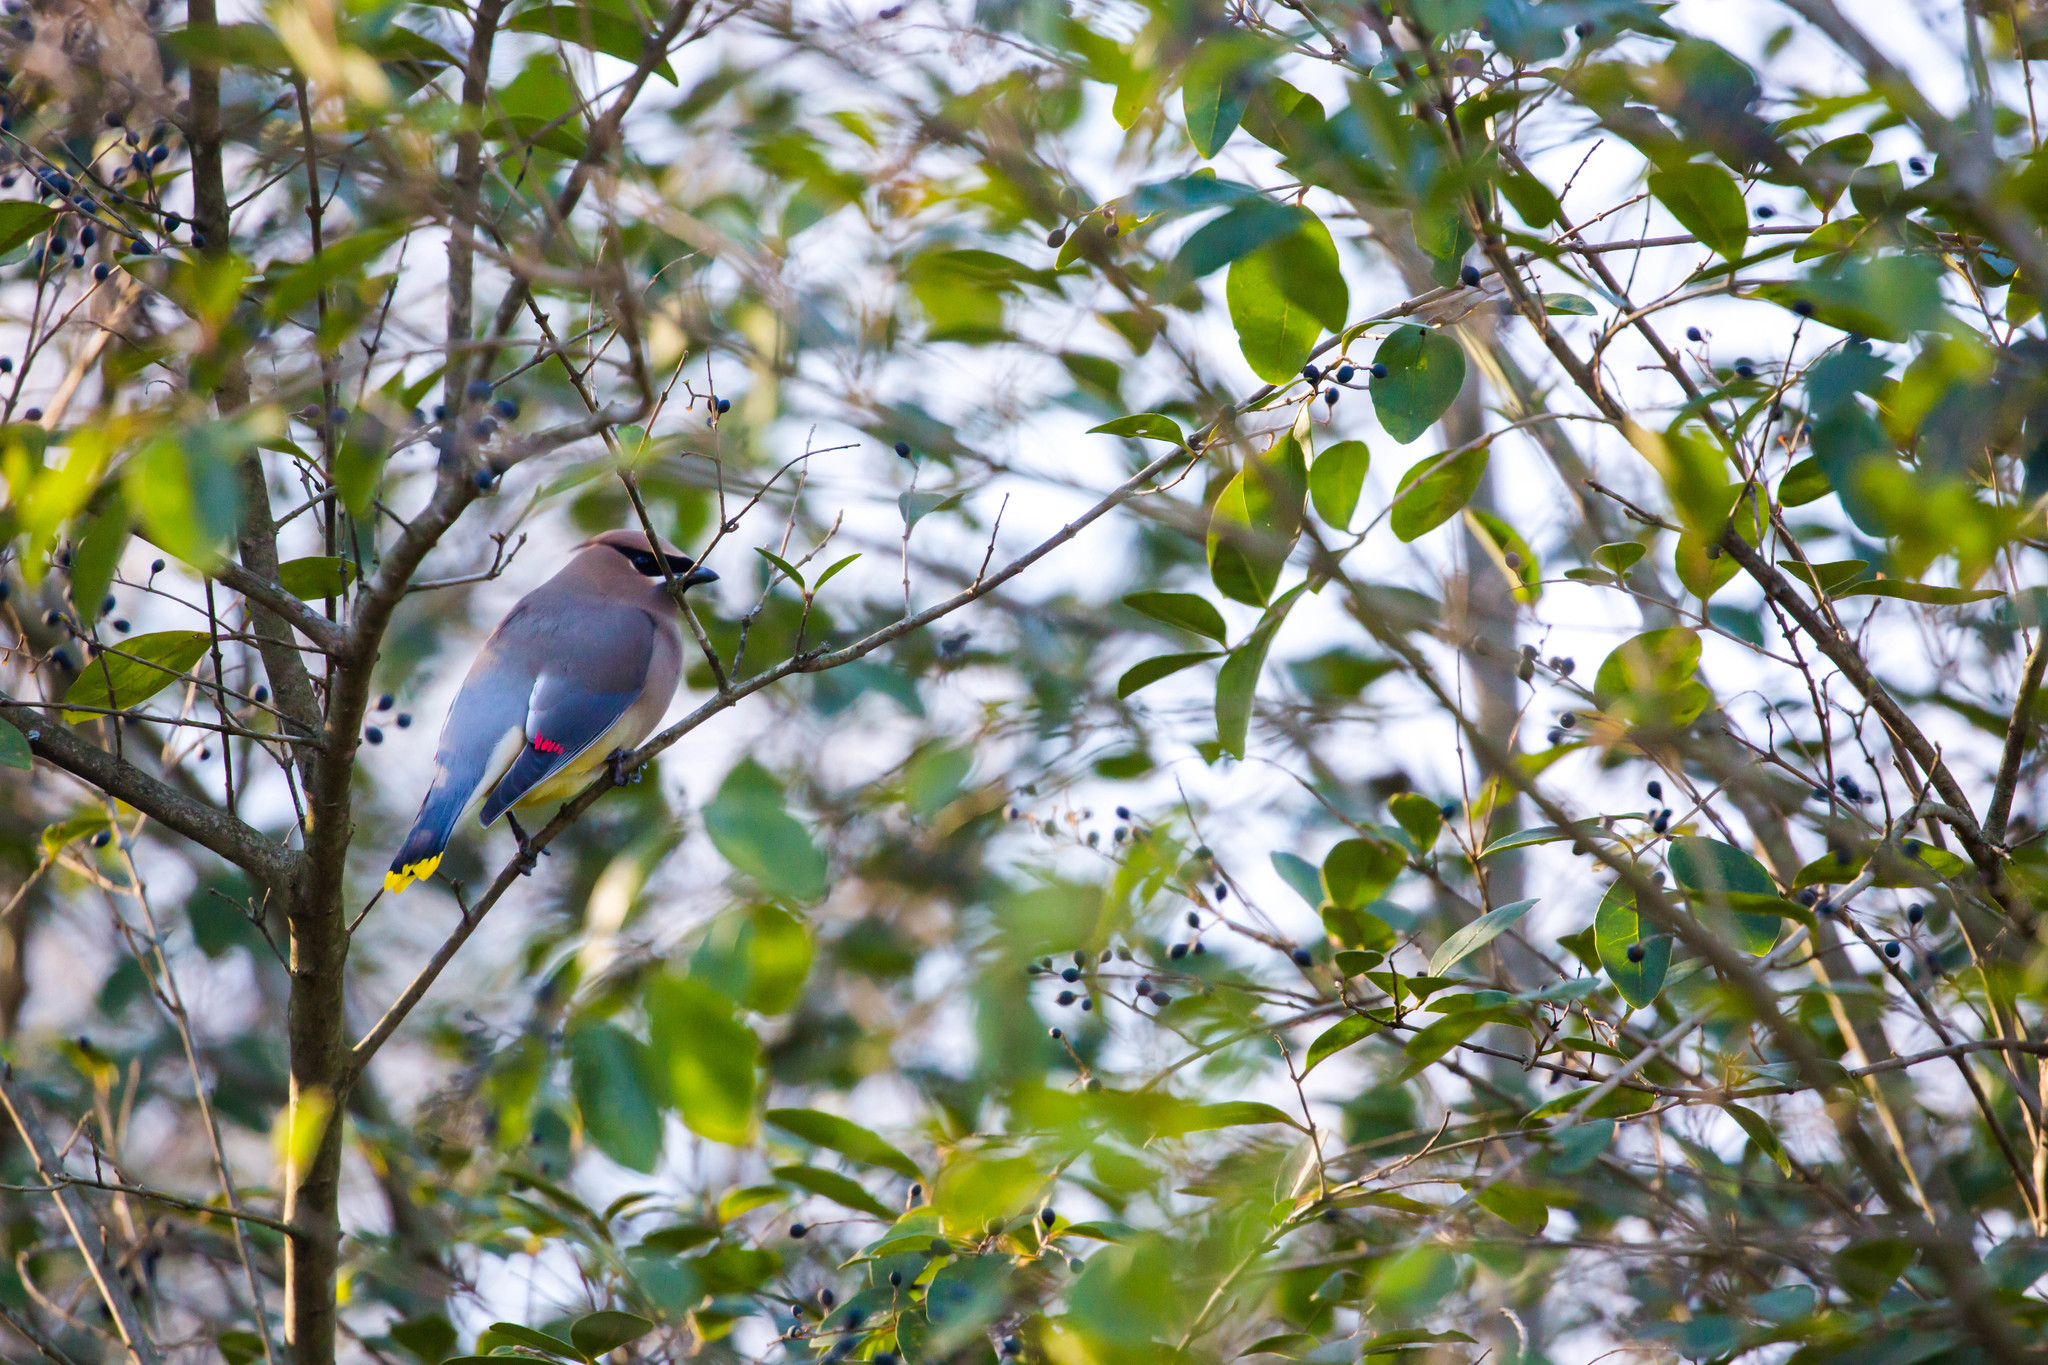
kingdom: Animalia
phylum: Chordata
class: Aves
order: Passeriformes
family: Bombycillidae
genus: Bombycilla
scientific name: Bombycilla cedrorum
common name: Cedar waxwing
